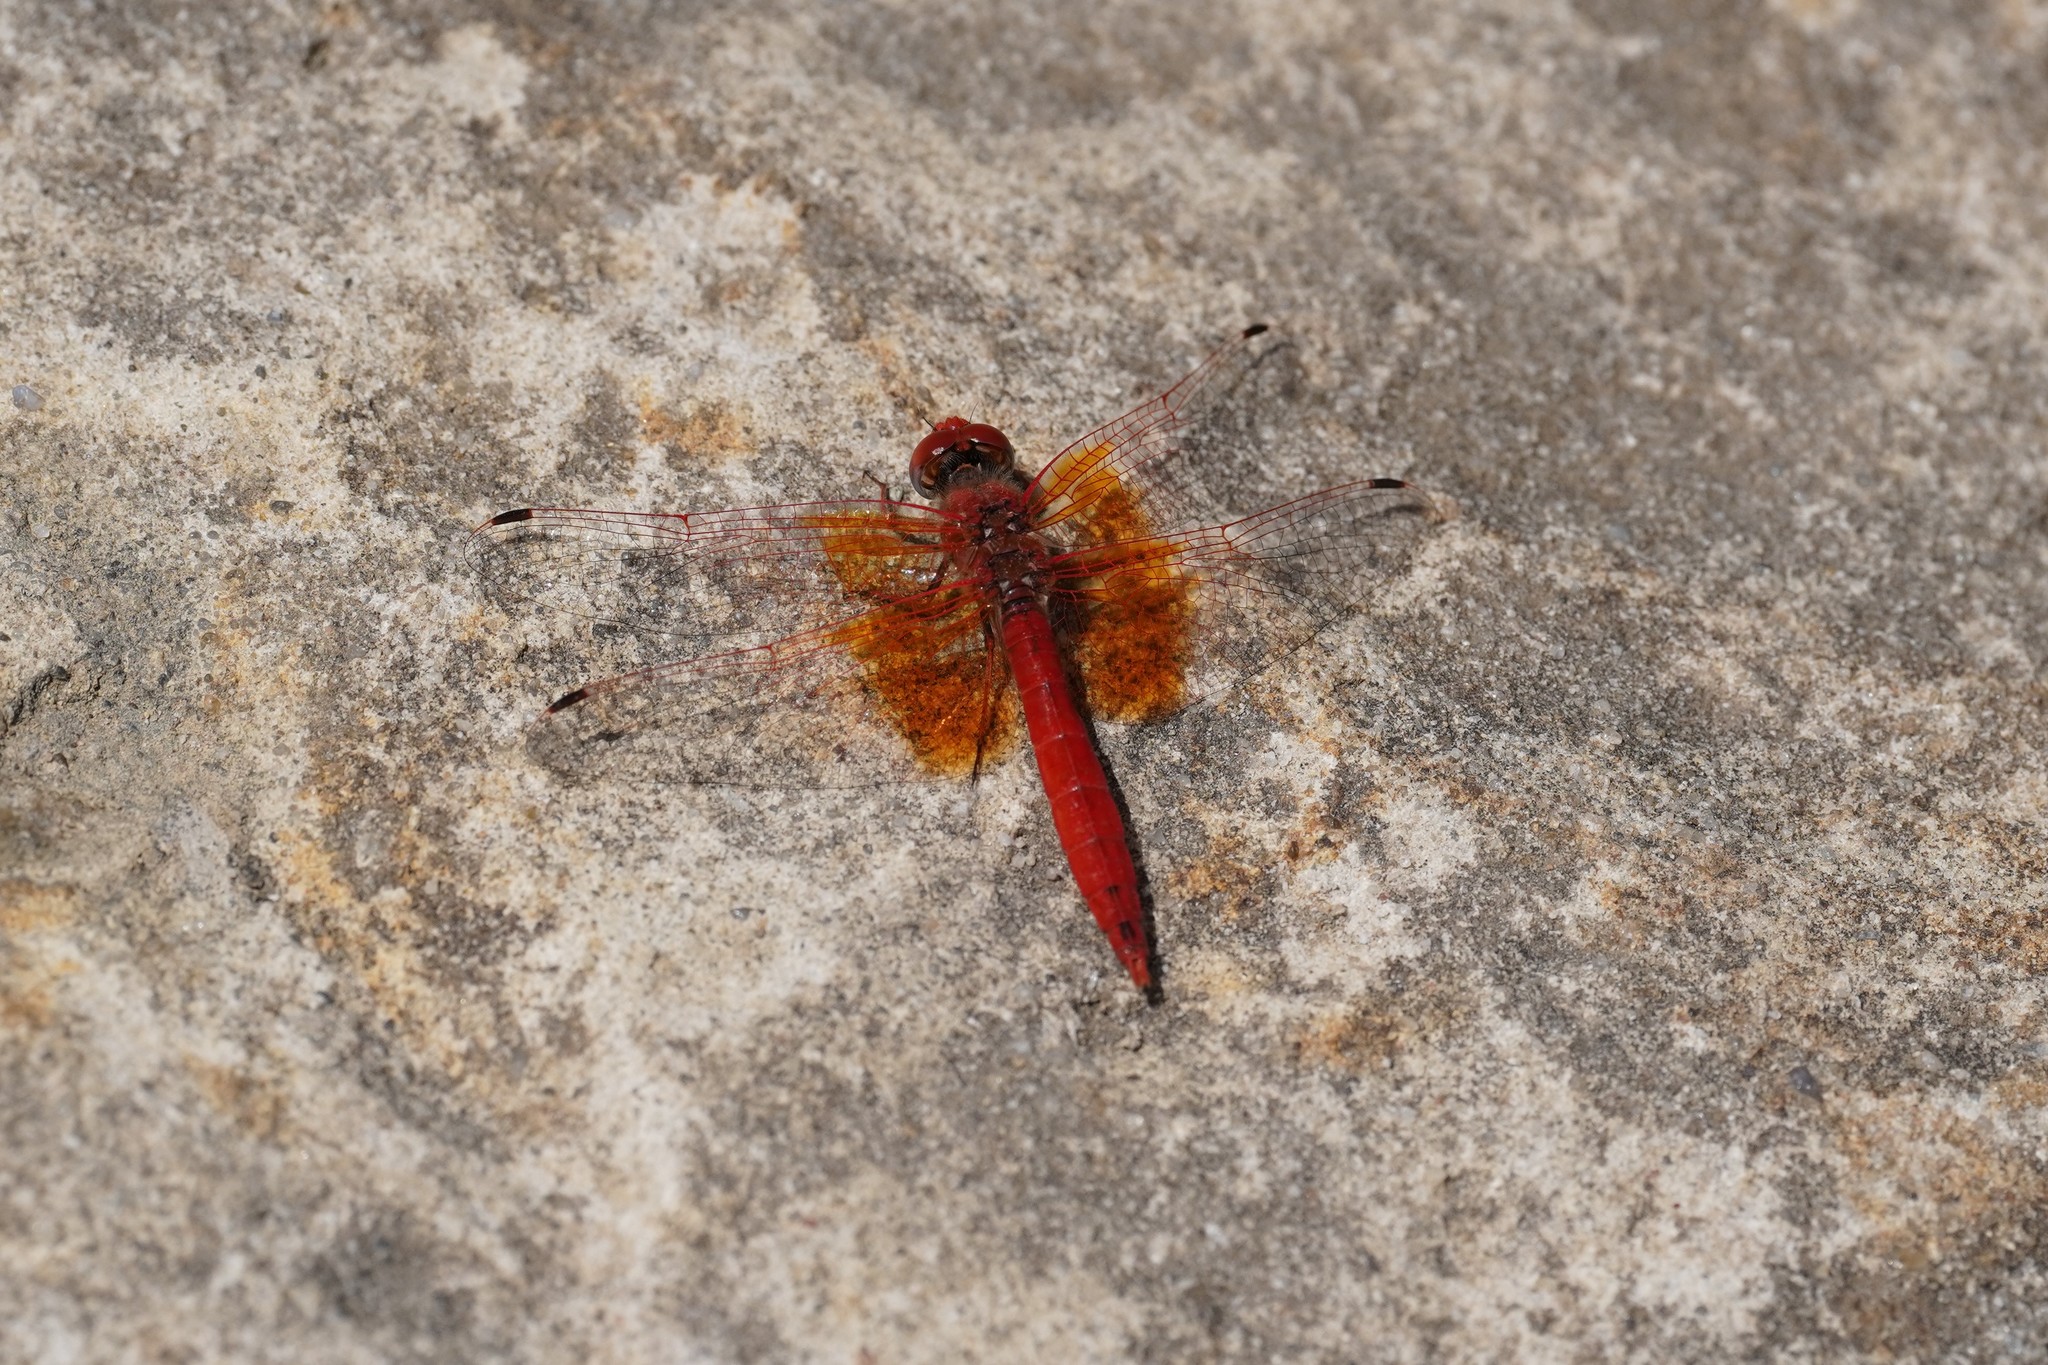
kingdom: Animalia
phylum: Arthropoda
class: Insecta
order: Odonata
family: Libellulidae
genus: Trithemis
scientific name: Trithemis kirbyi
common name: Kirby's dropwing
